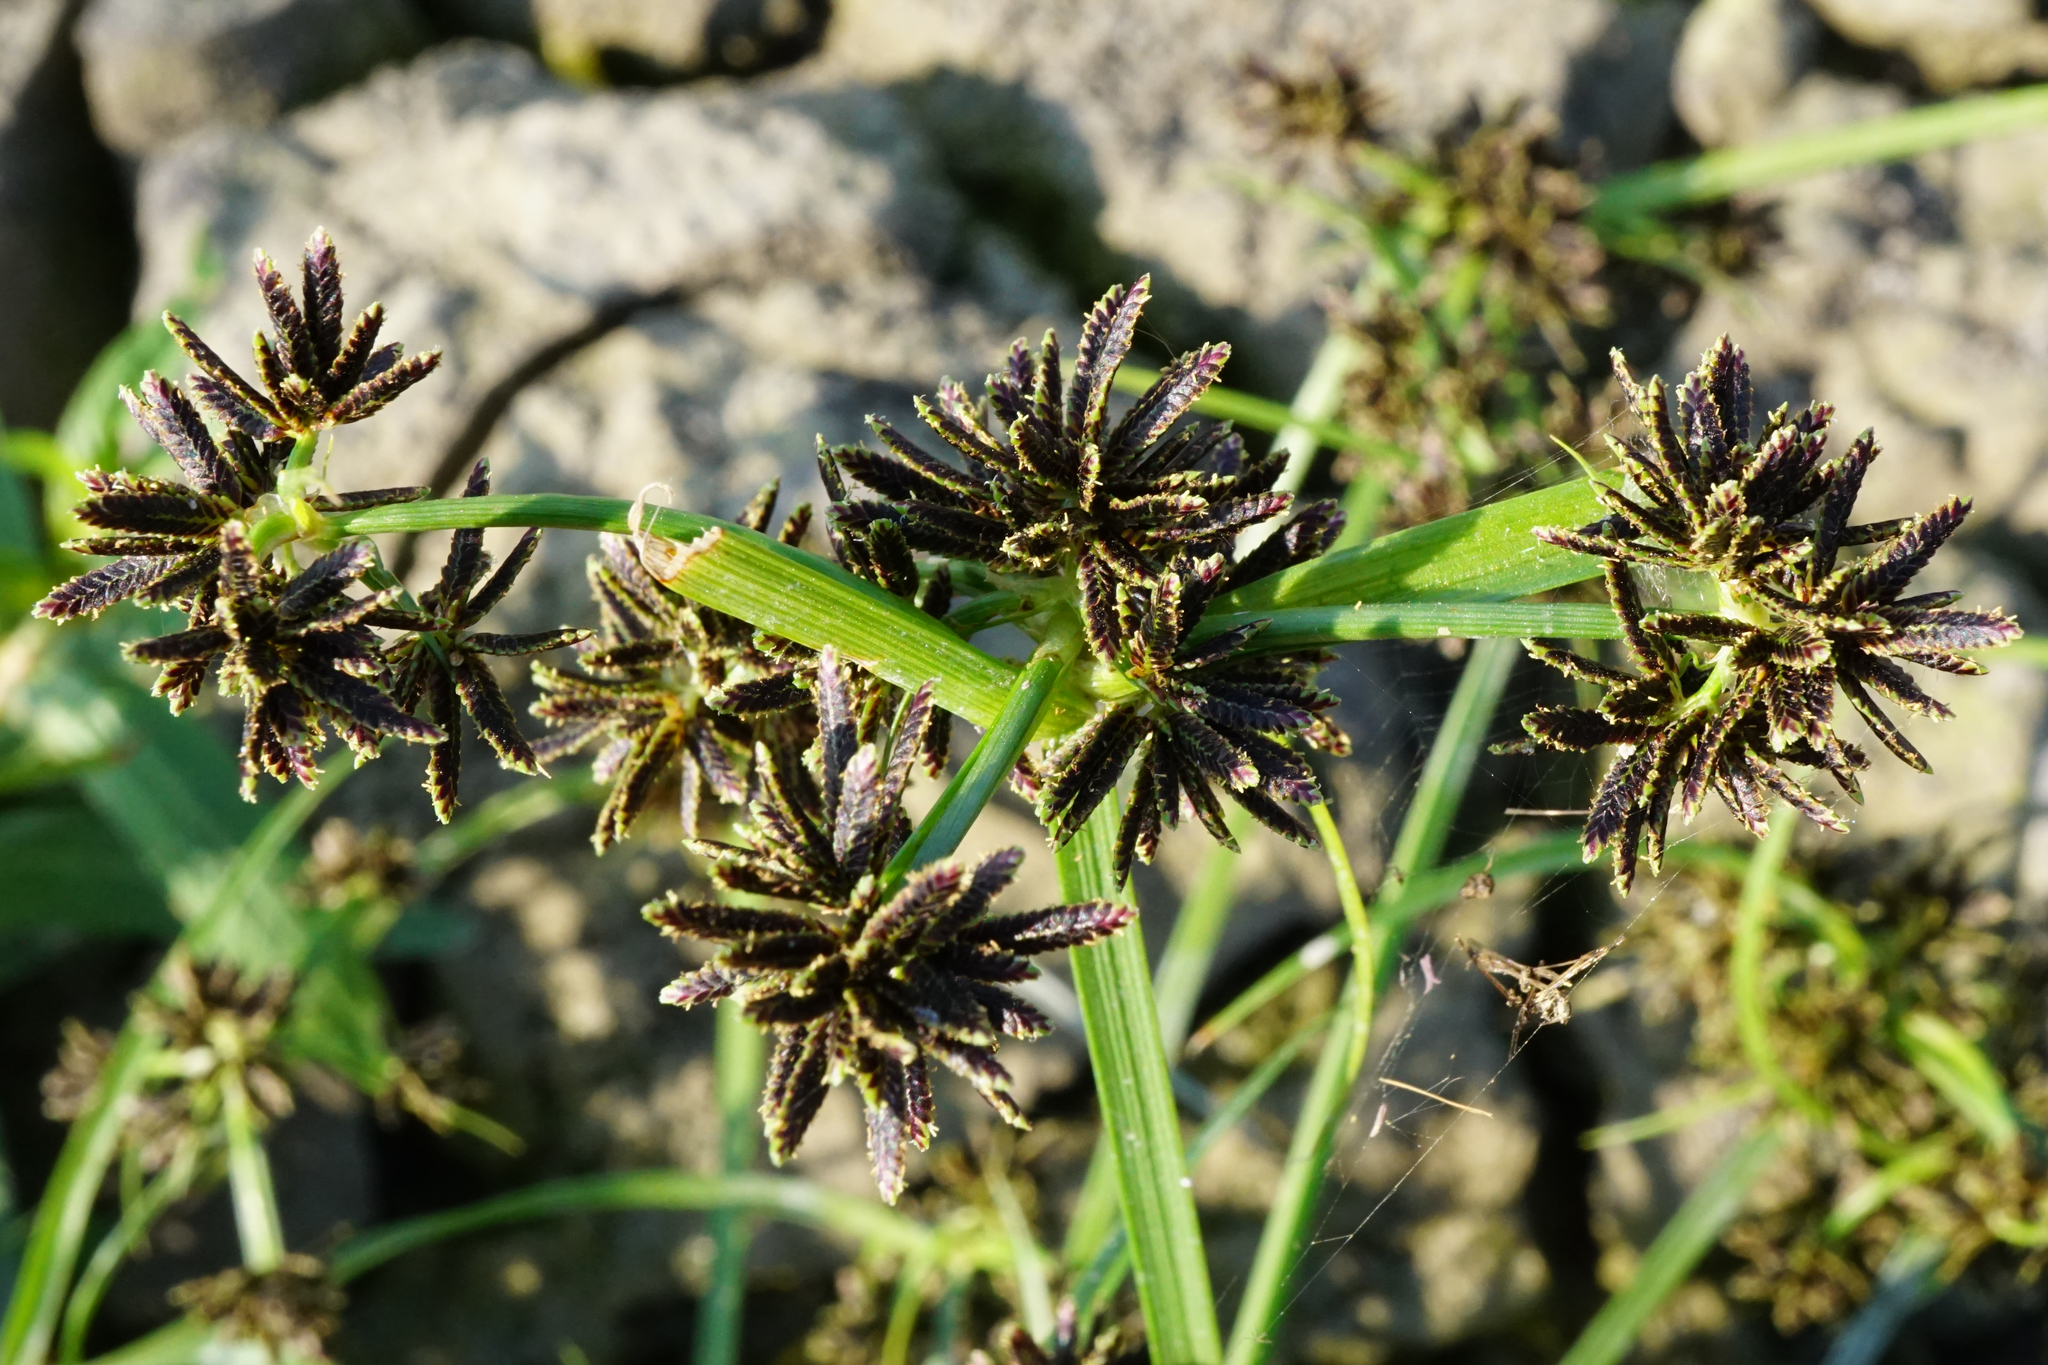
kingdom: Plantae
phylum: Tracheophyta
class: Liliopsida
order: Poales
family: Cyperaceae
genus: Cyperus
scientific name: Cyperus fuscus
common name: Brown galingale
